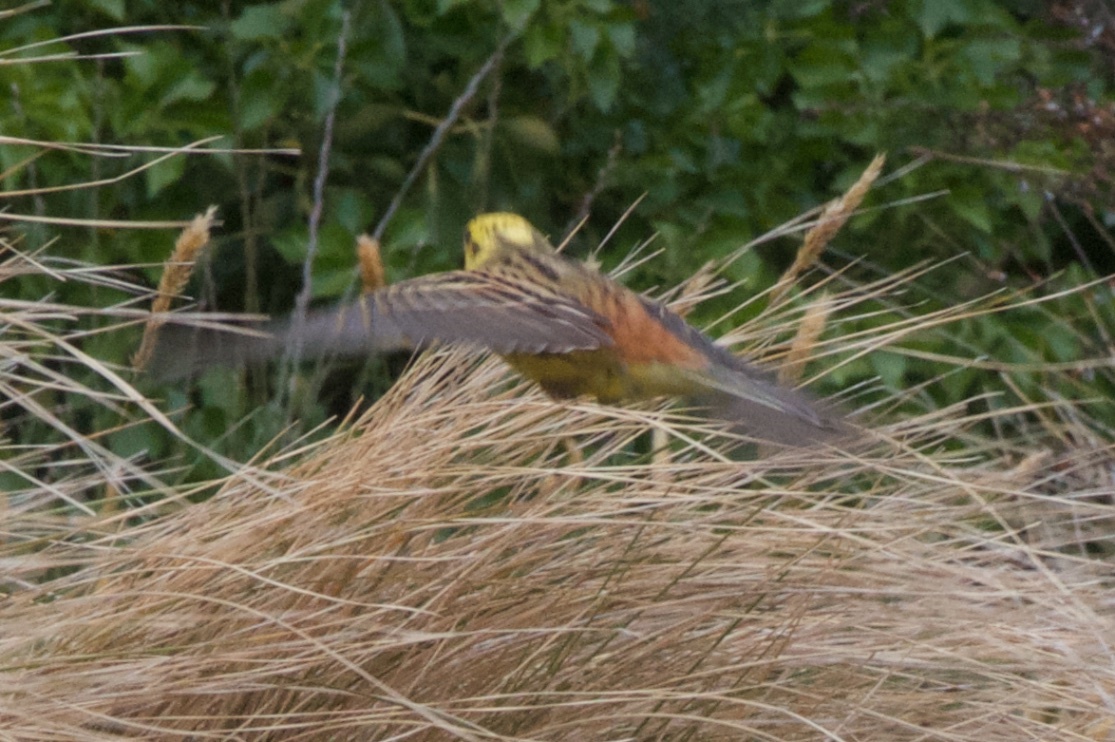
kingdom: Animalia
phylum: Chordata
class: Aves
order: Passeriformes
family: Emberizidae
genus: Emberiza
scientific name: Emberiza citrinella
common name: Yellowhammer
